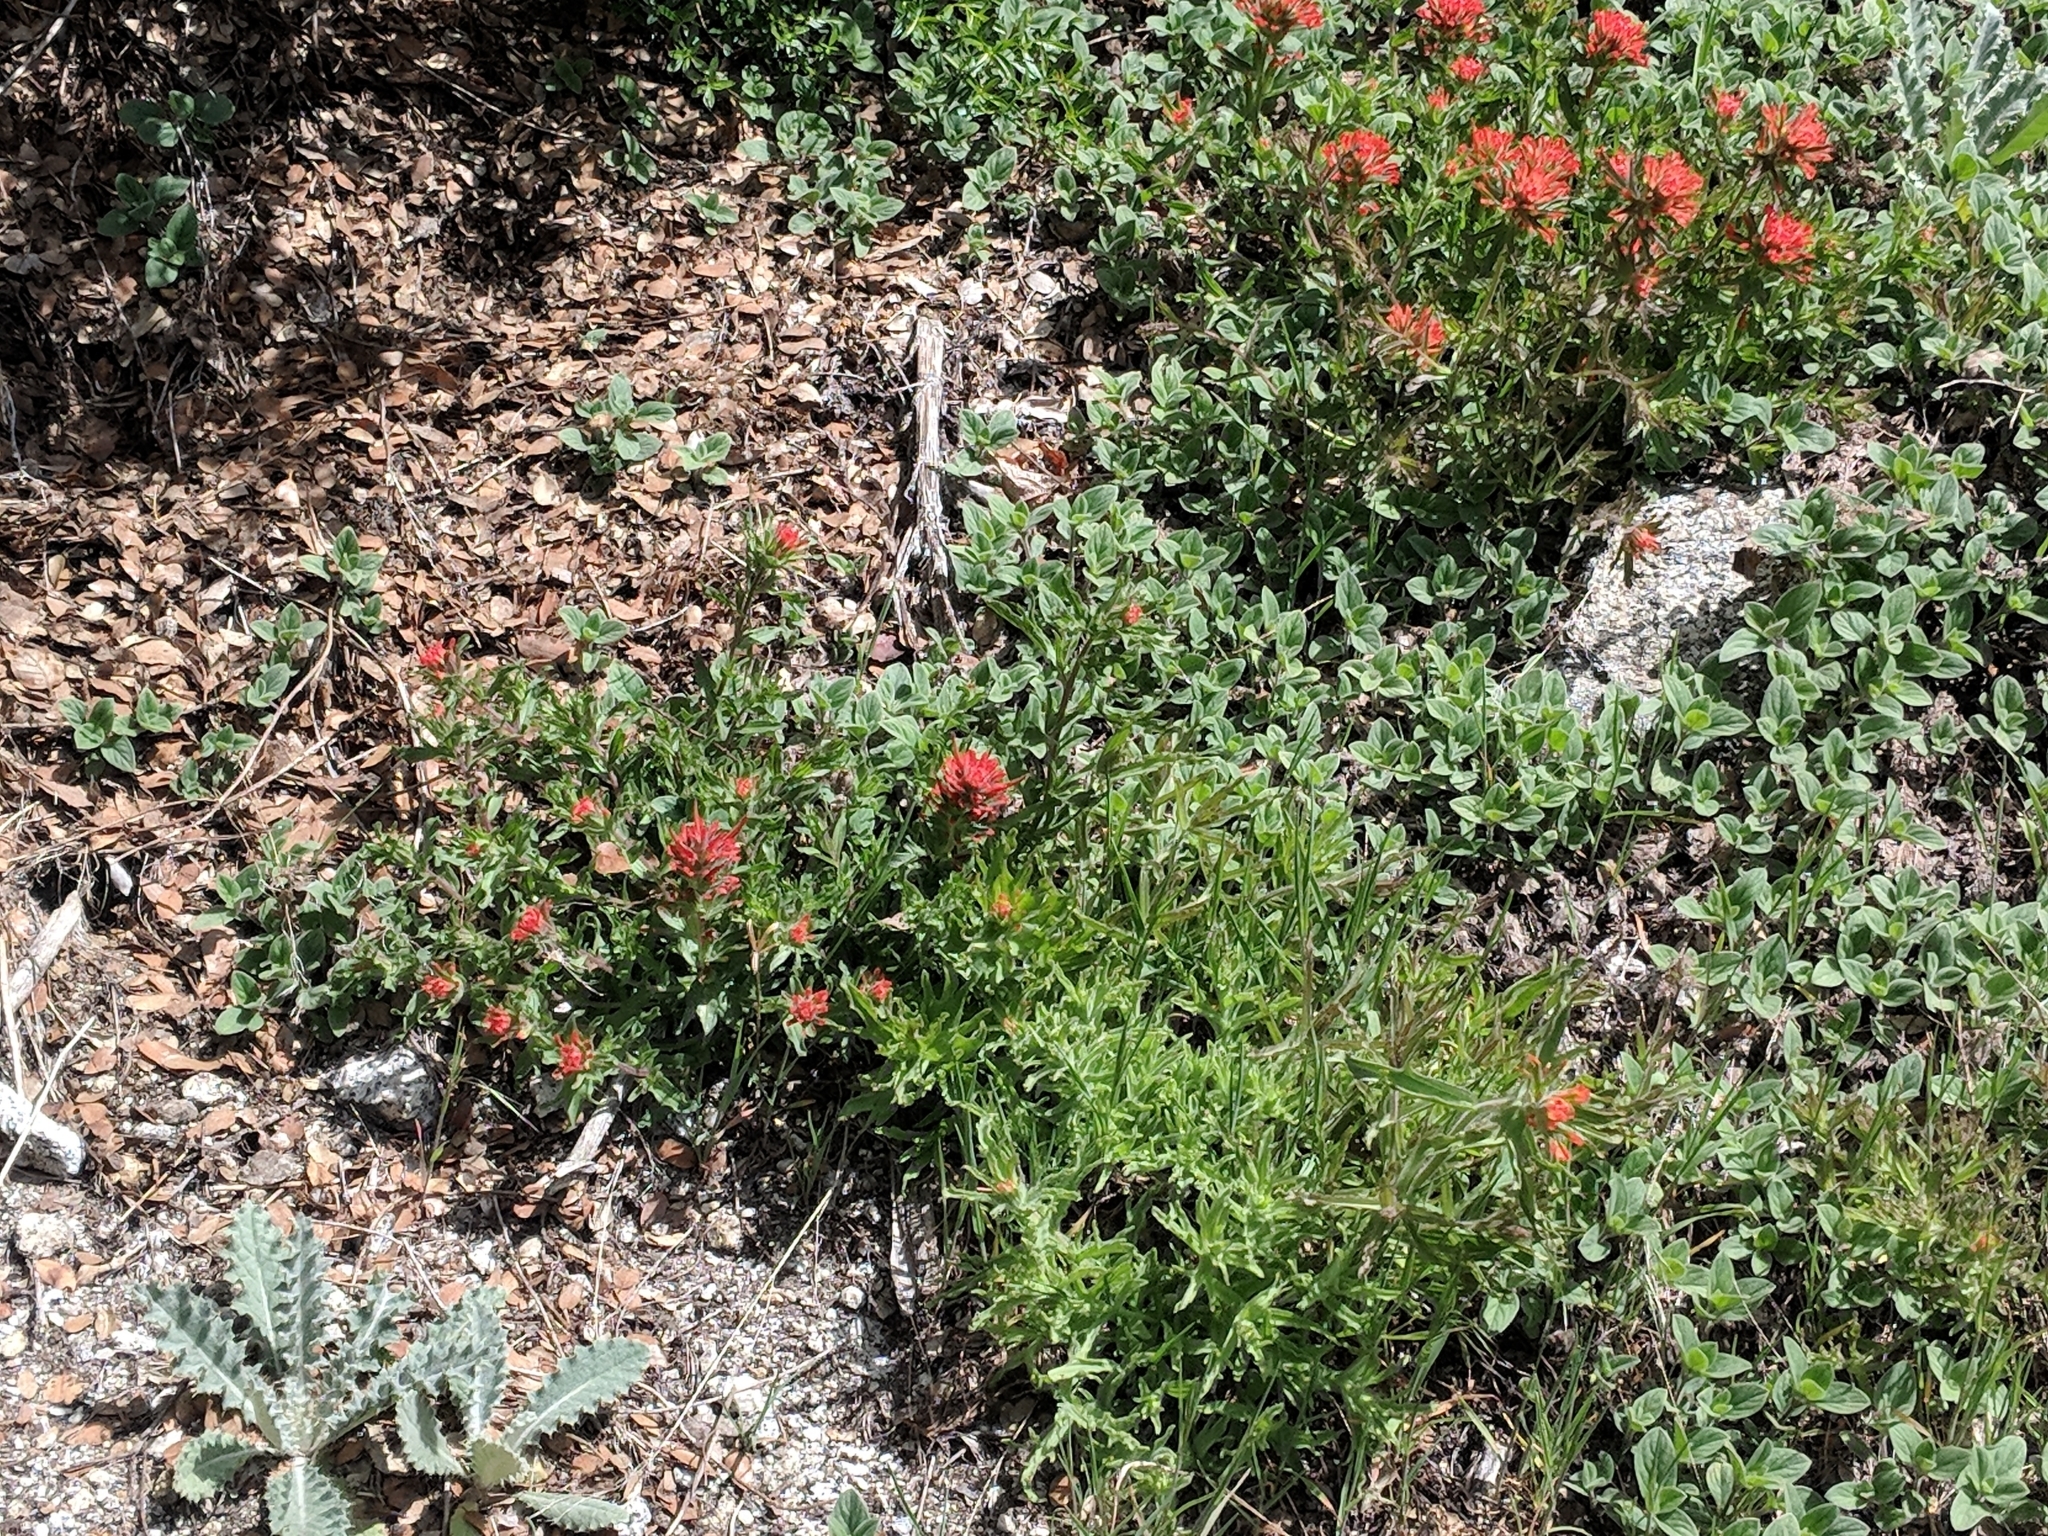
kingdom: Plantae
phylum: Tracheophyta
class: Magnoliopsida
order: Lamiales
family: Orobanchaceae
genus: Castilleja
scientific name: Castilleja applegatei
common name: Wavy-leaf paintbrush
